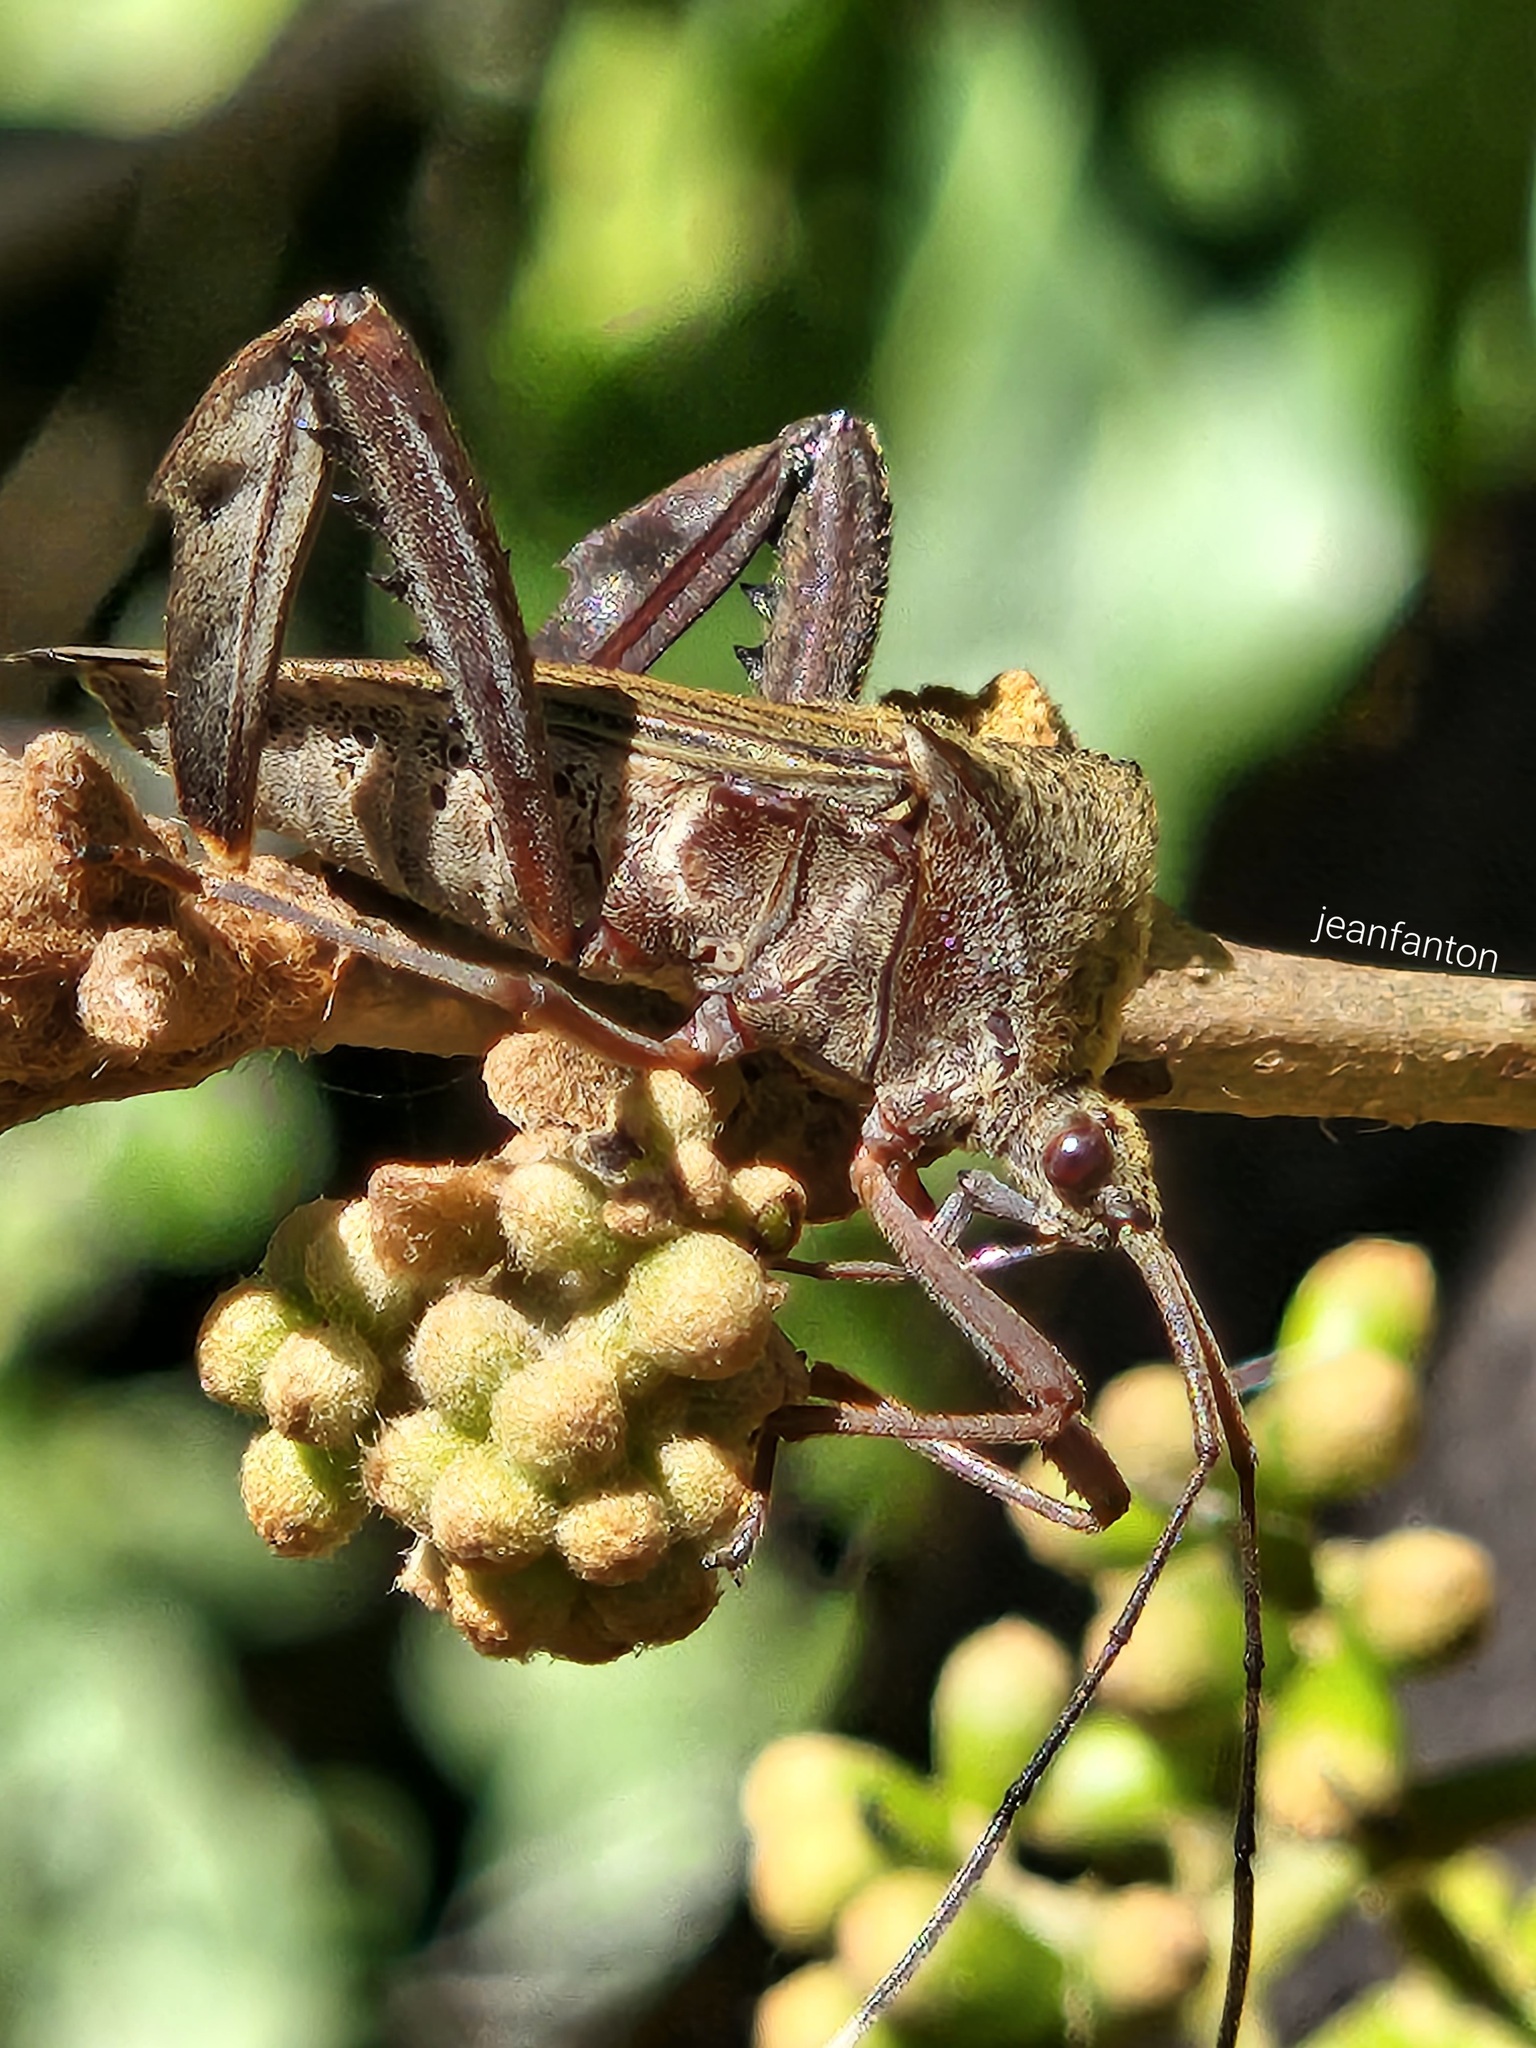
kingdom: Animalia
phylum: Arthropoda
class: Insecta
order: Hemiptera
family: Coreidae
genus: Acanthocephala
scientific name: Acanthocephala parensis
